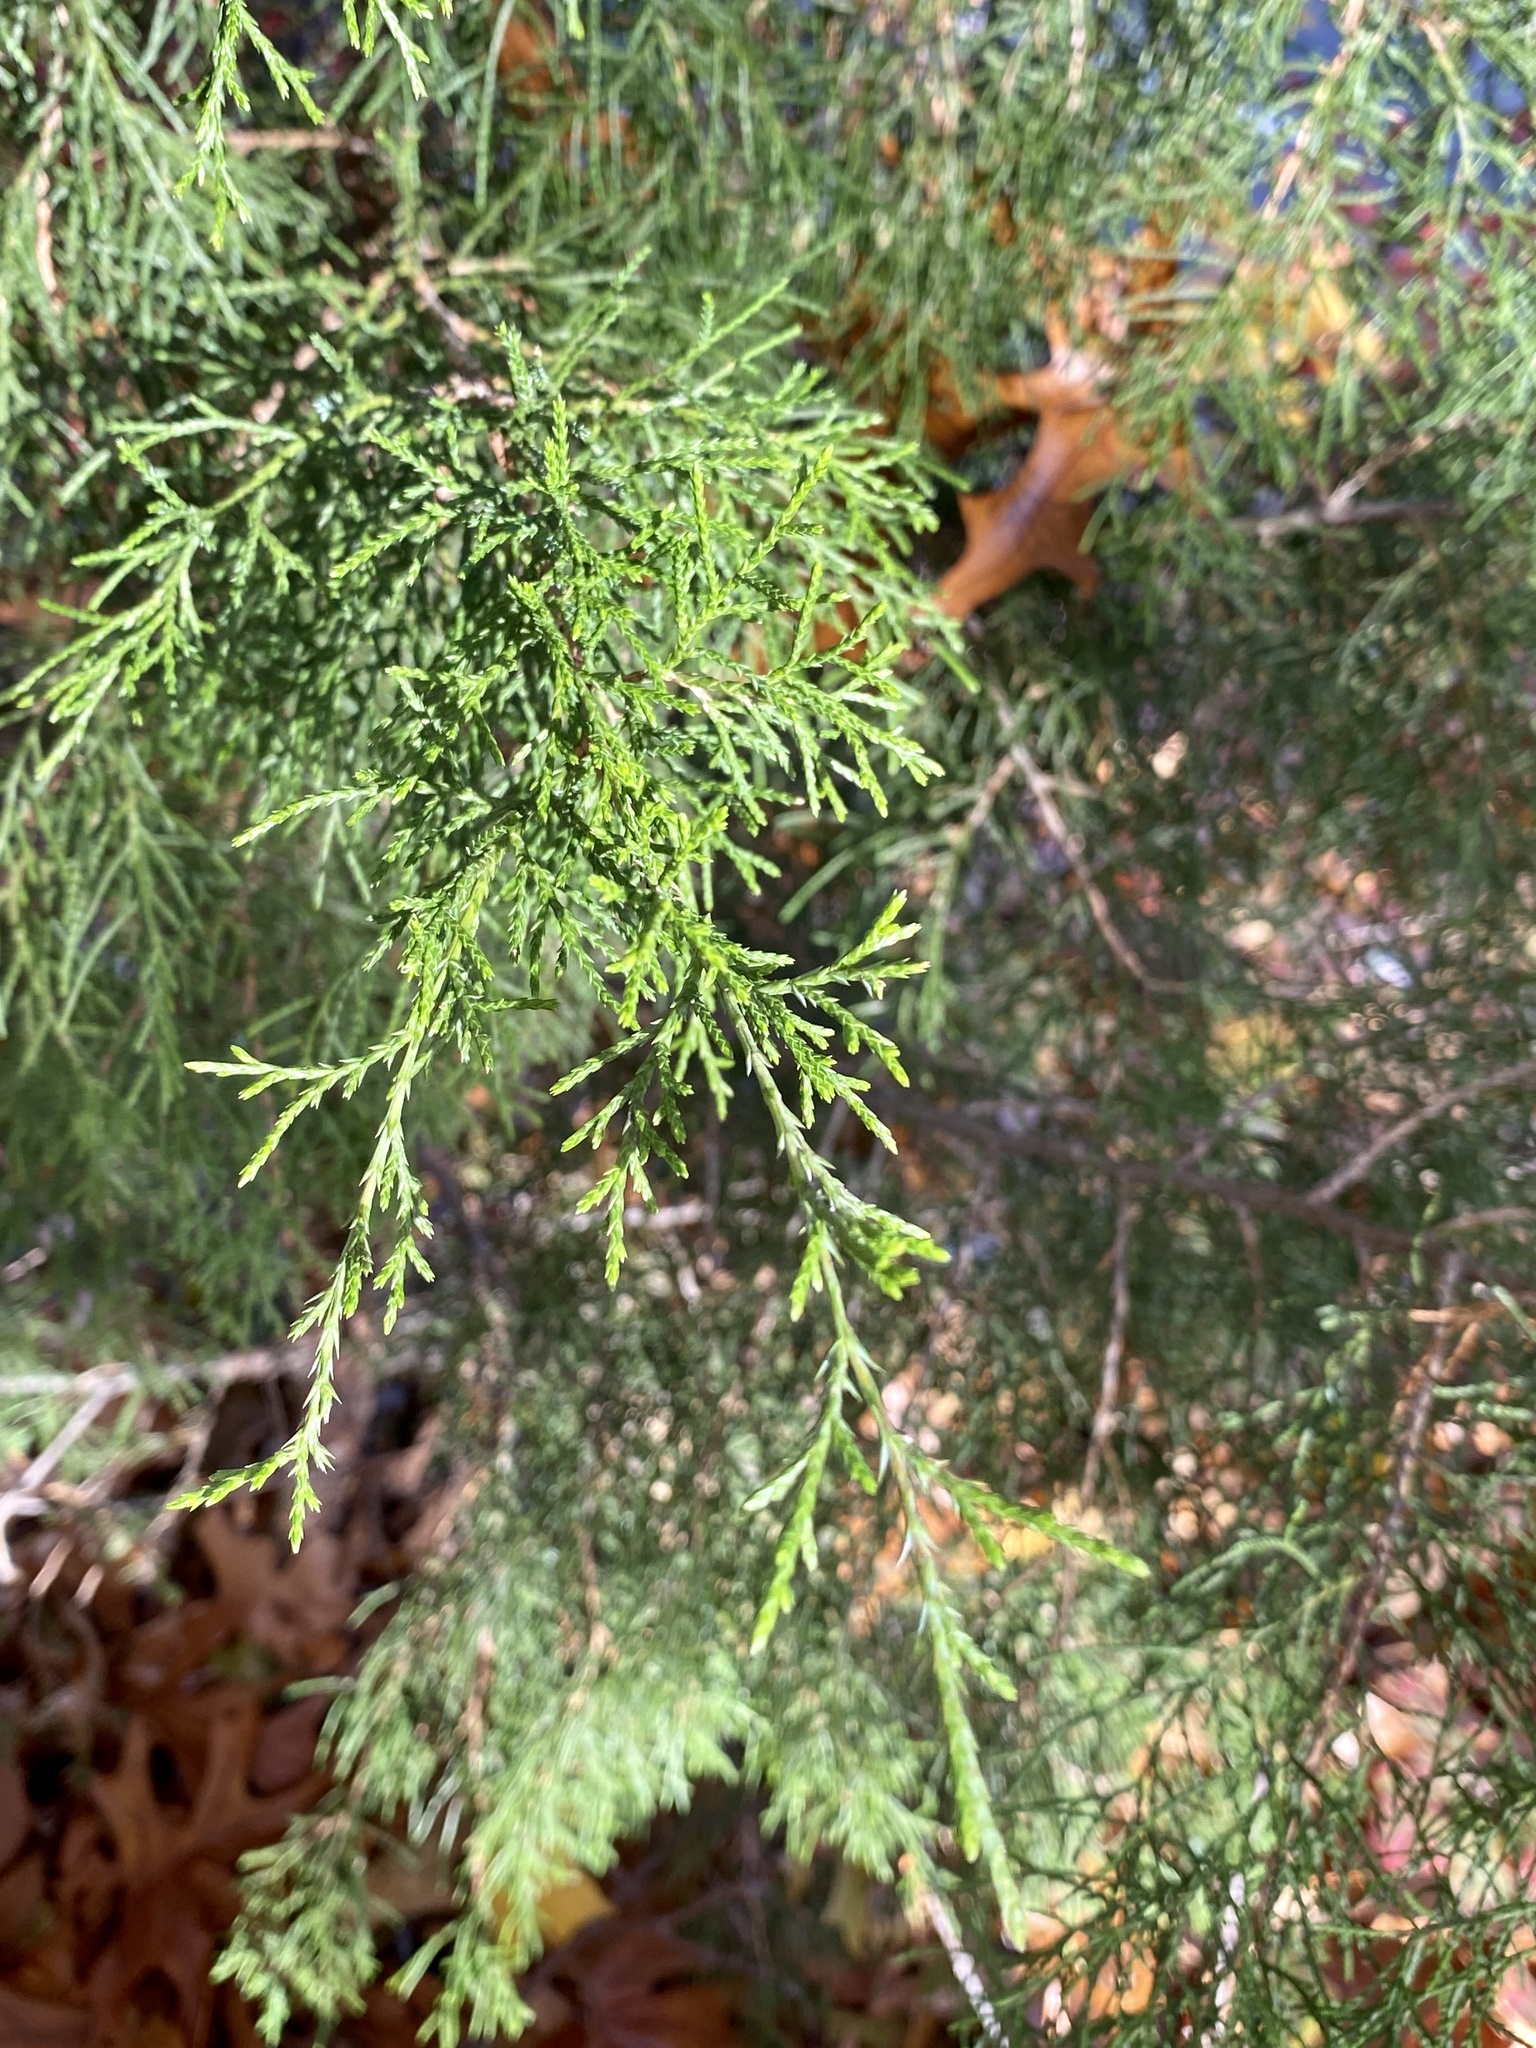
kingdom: Plantae
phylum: Tracheophyta
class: Pinopsida
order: Pinales
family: Cupressaceae
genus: Juniperus
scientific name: Juniperus virginiana
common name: Red juniper
